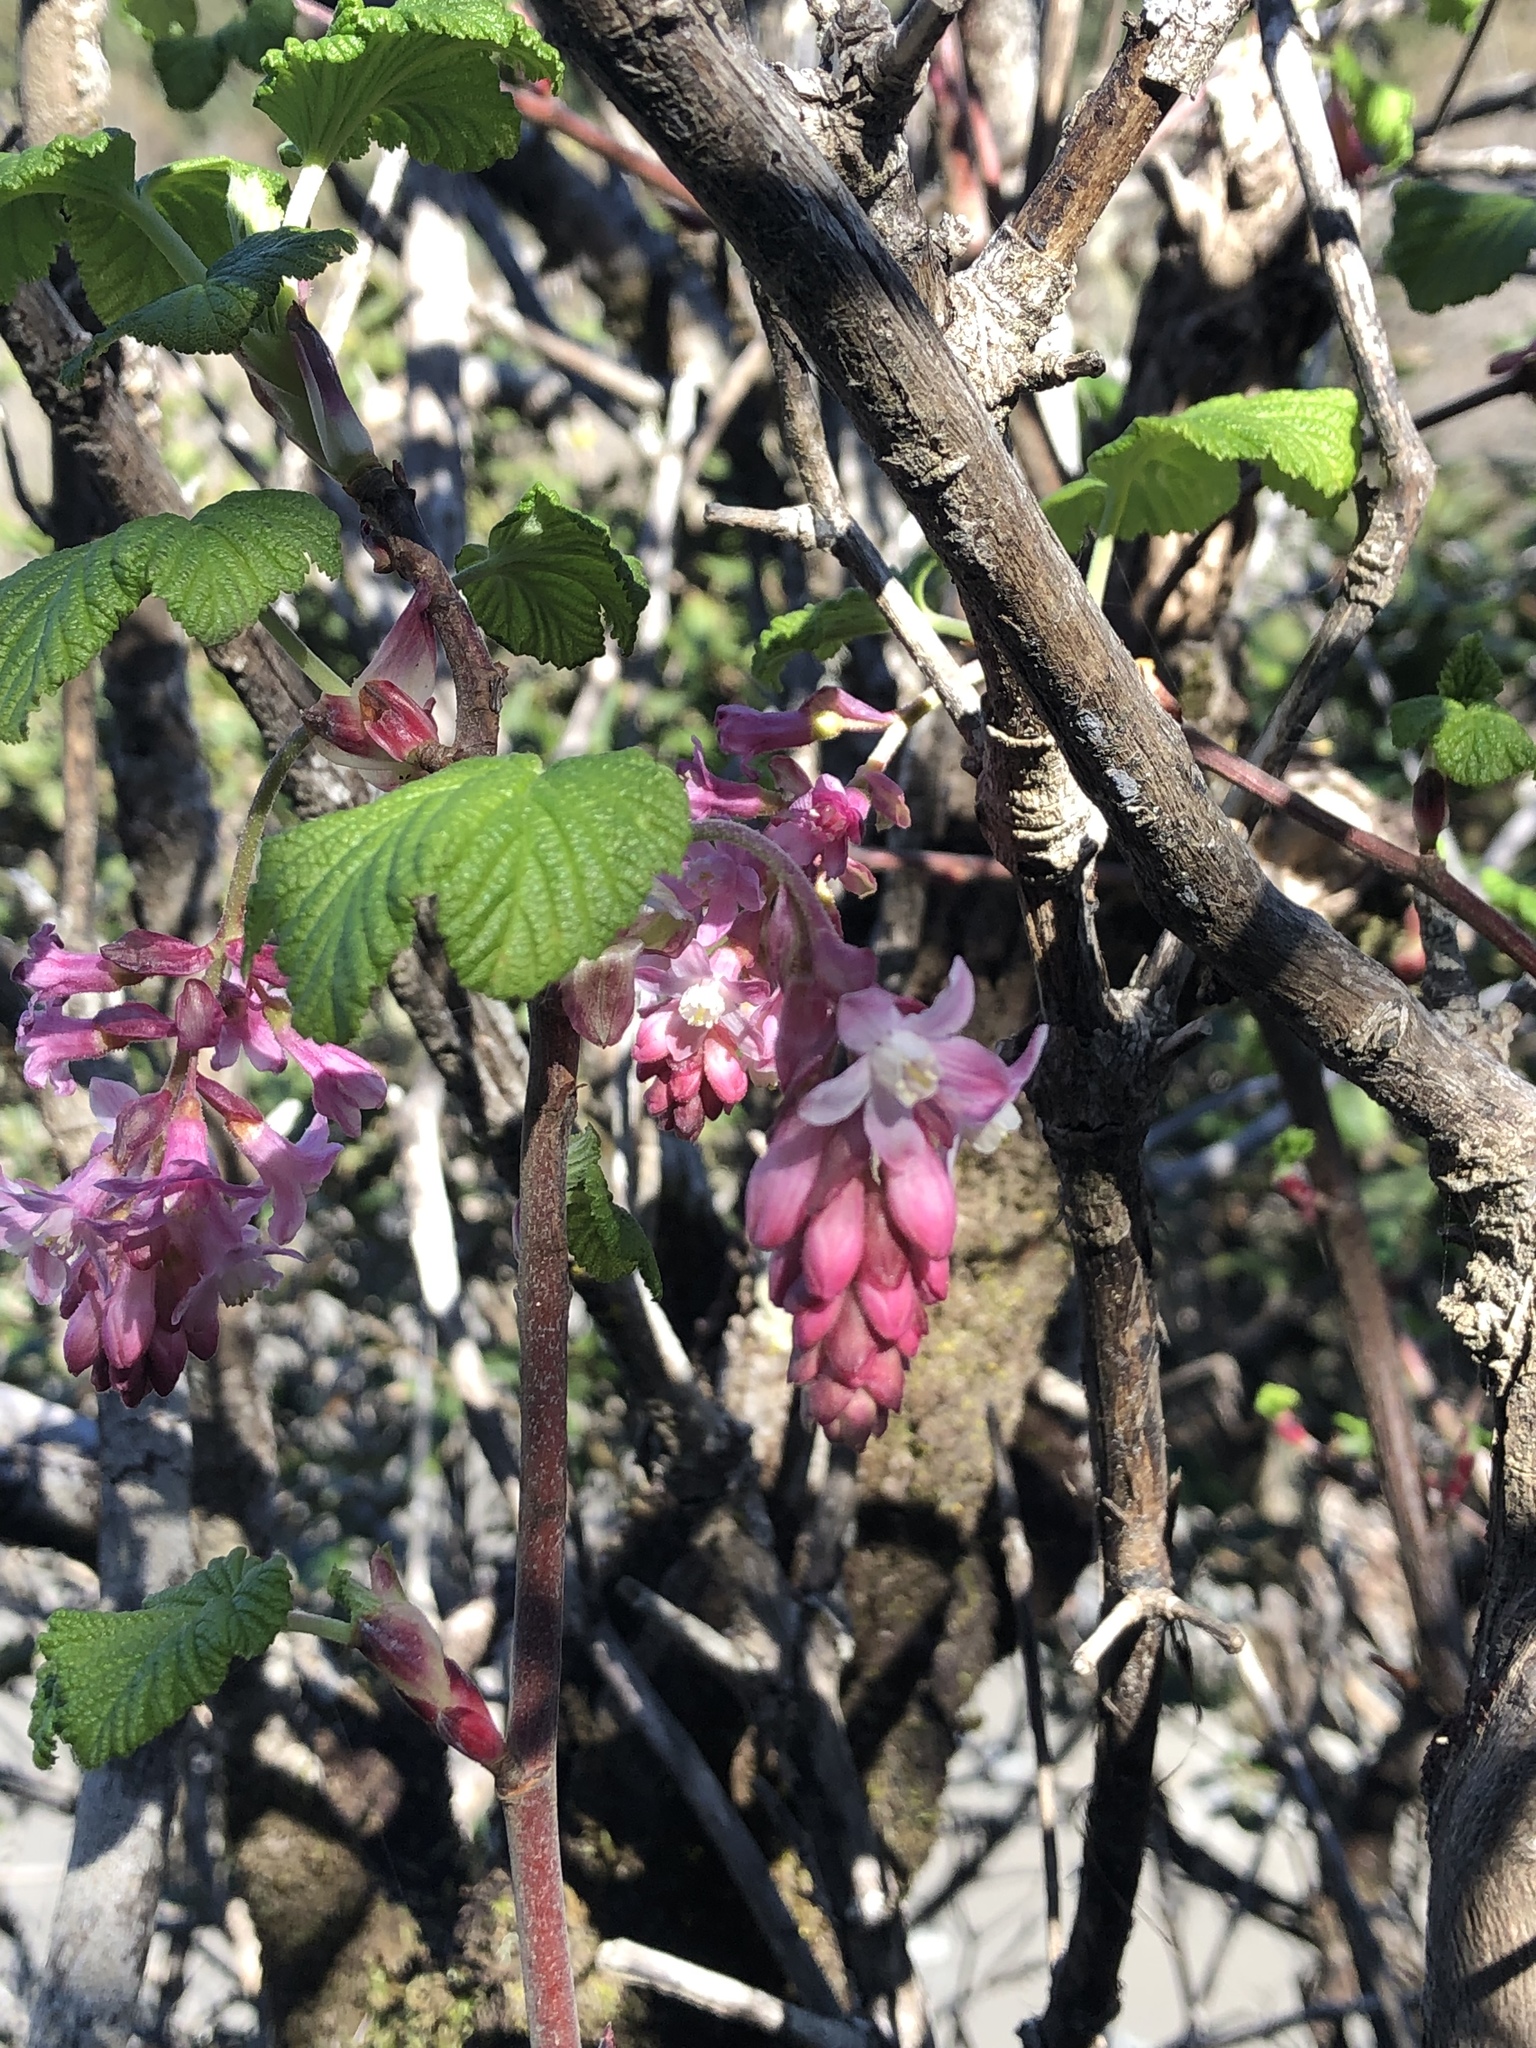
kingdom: Plantae
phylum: Tracheophyta
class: Magnoliopsida
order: Saxifragales
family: Grossulariaceae
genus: Ribes
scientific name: Ribes sanguineum
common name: Flowering currant
